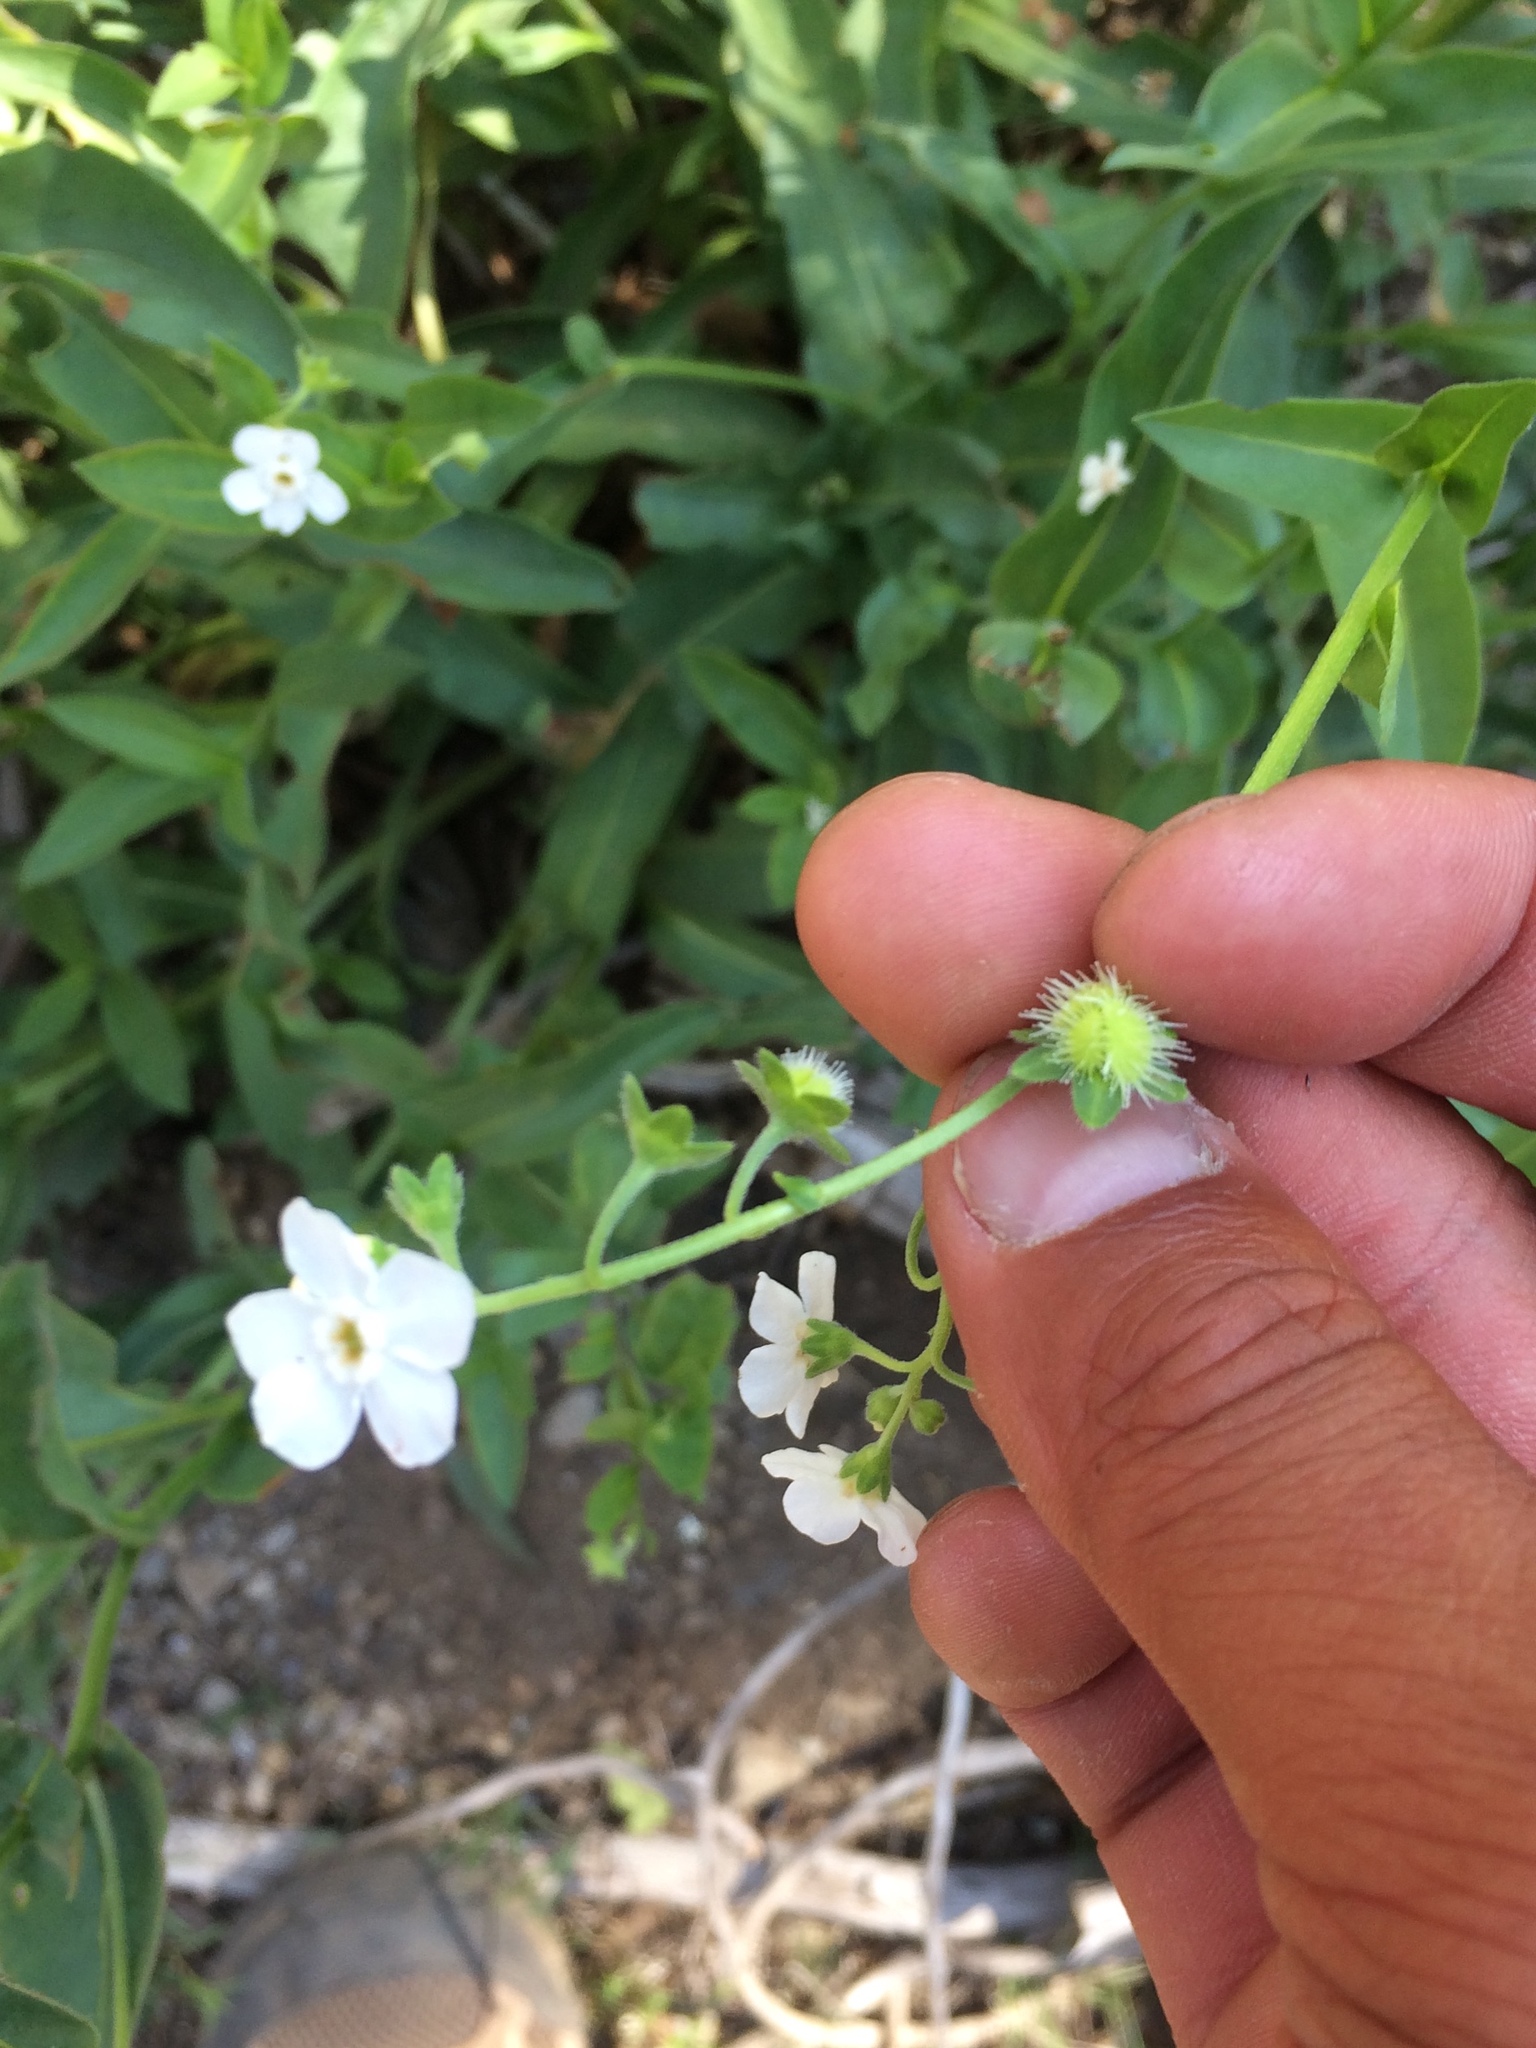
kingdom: Plantae
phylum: Tracheophyta
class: Magnoliopsida
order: Boraginales
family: Boraginaceae
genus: Hackelia
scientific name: Hackelia californica
